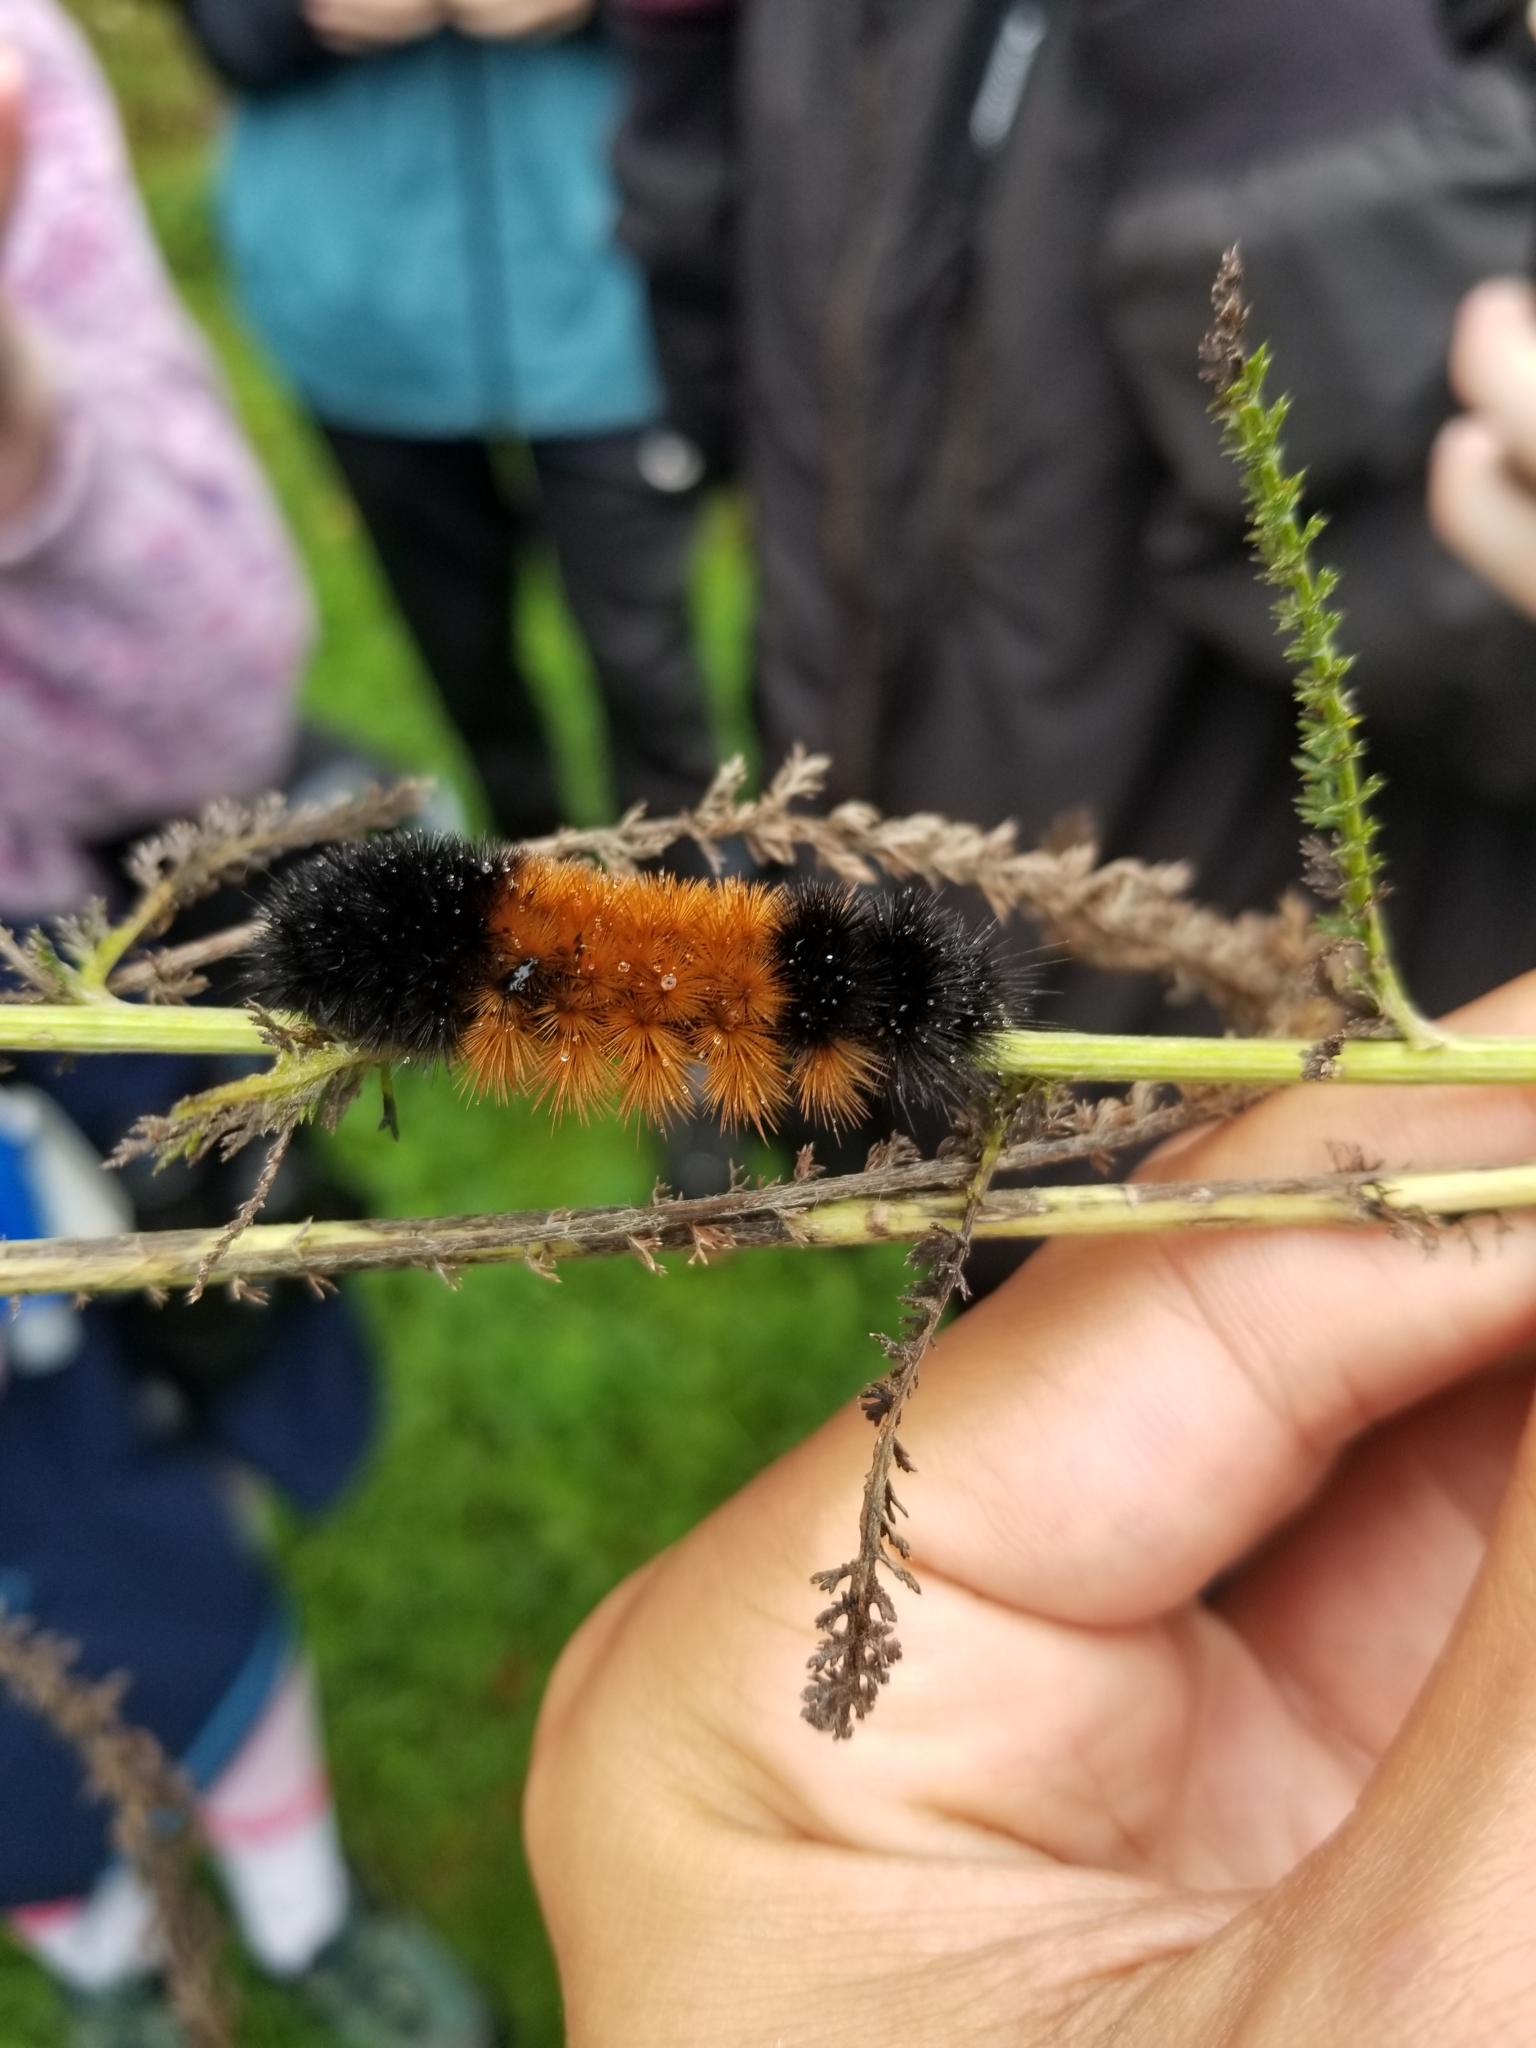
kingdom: Animalia
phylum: Arthropoda
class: Insecta
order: Lepidoptera
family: Erebidae
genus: Pyrrharctia
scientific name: Pyrrharctia isabella
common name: Isabella tiger moth
